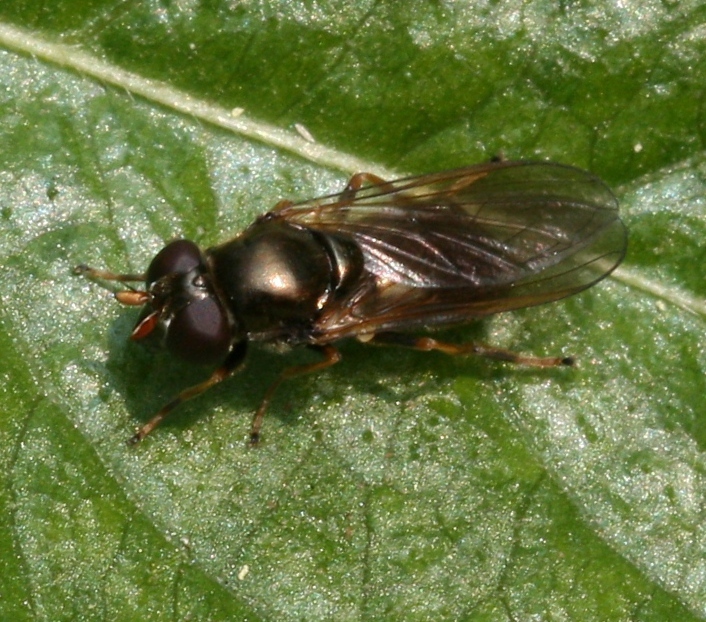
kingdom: Animalia
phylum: Arthropoda
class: Insecta
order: Diptera
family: Syrphidae
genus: Cheilosia
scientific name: Cheilosia pagana
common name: Hover fly
